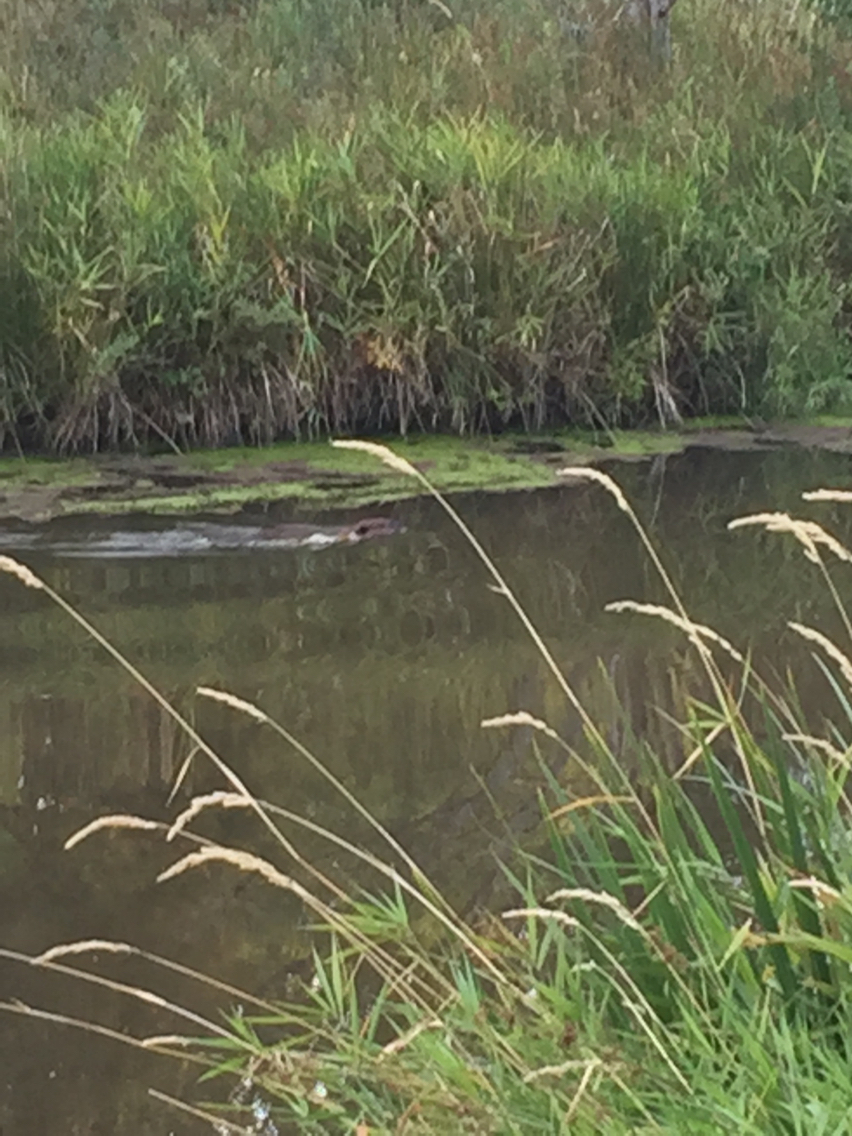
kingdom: Animalia
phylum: Chordata
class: Mammalia
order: Rodentia
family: Castoridae
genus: Castor
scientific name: Castor canadensis
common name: American beaver
